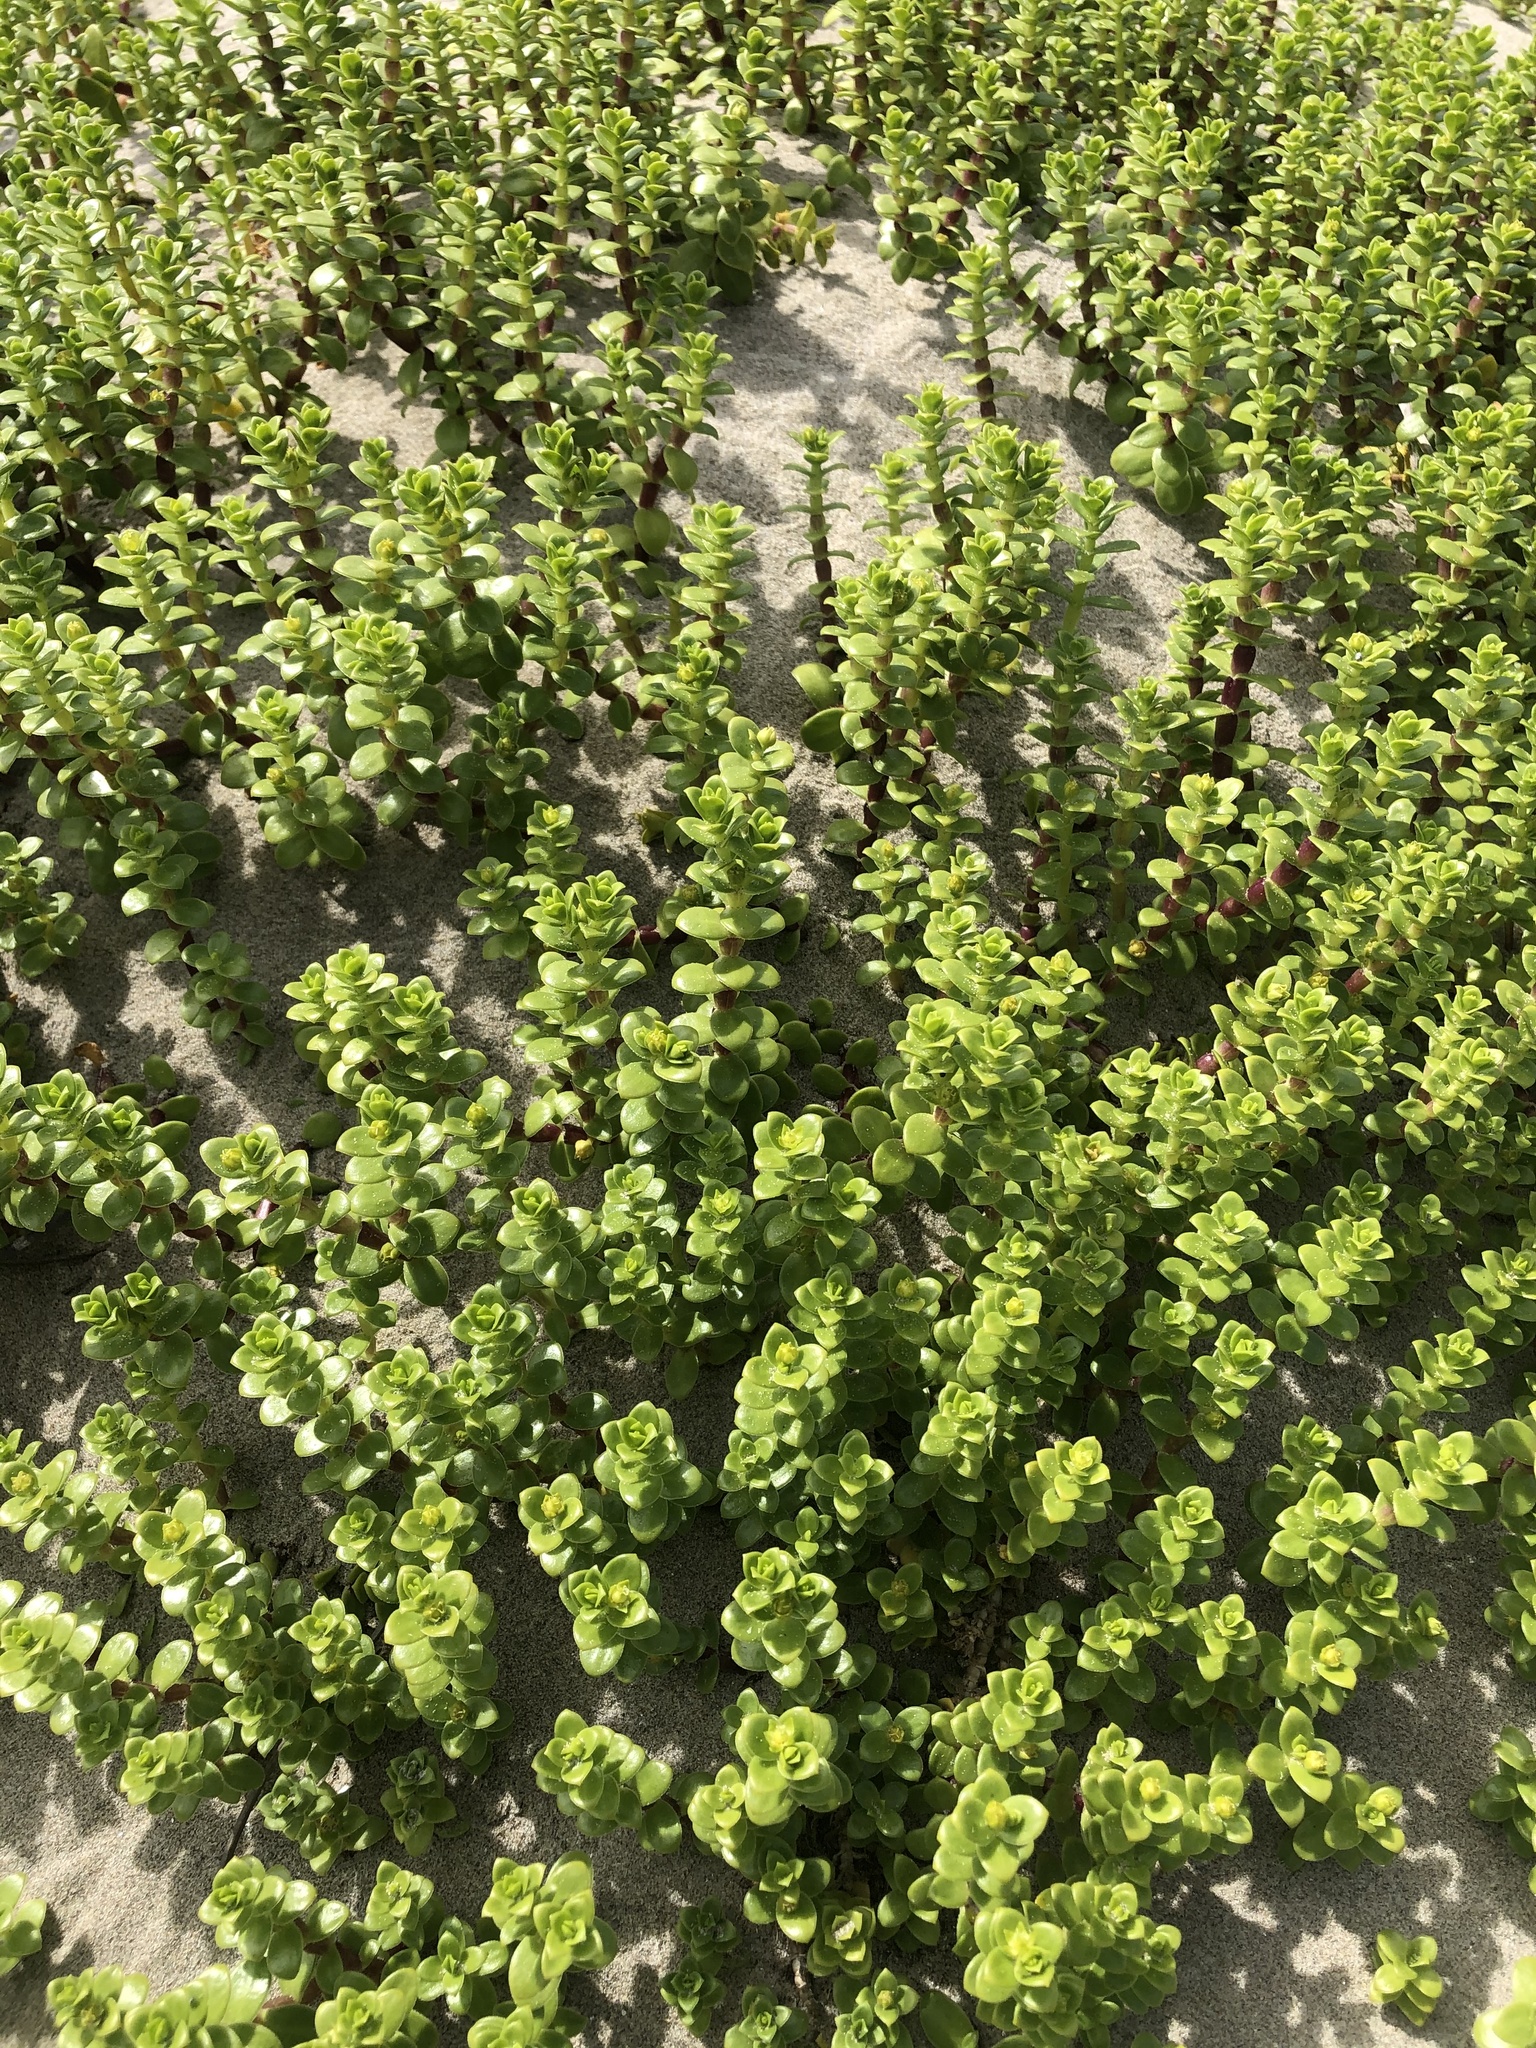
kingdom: Plantae
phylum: Tracheophyta
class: Magnoliopsida
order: Caryophyllales
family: Caryophyllaceae
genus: Honckenya
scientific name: Honckenya peploides
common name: Sea sandwort
